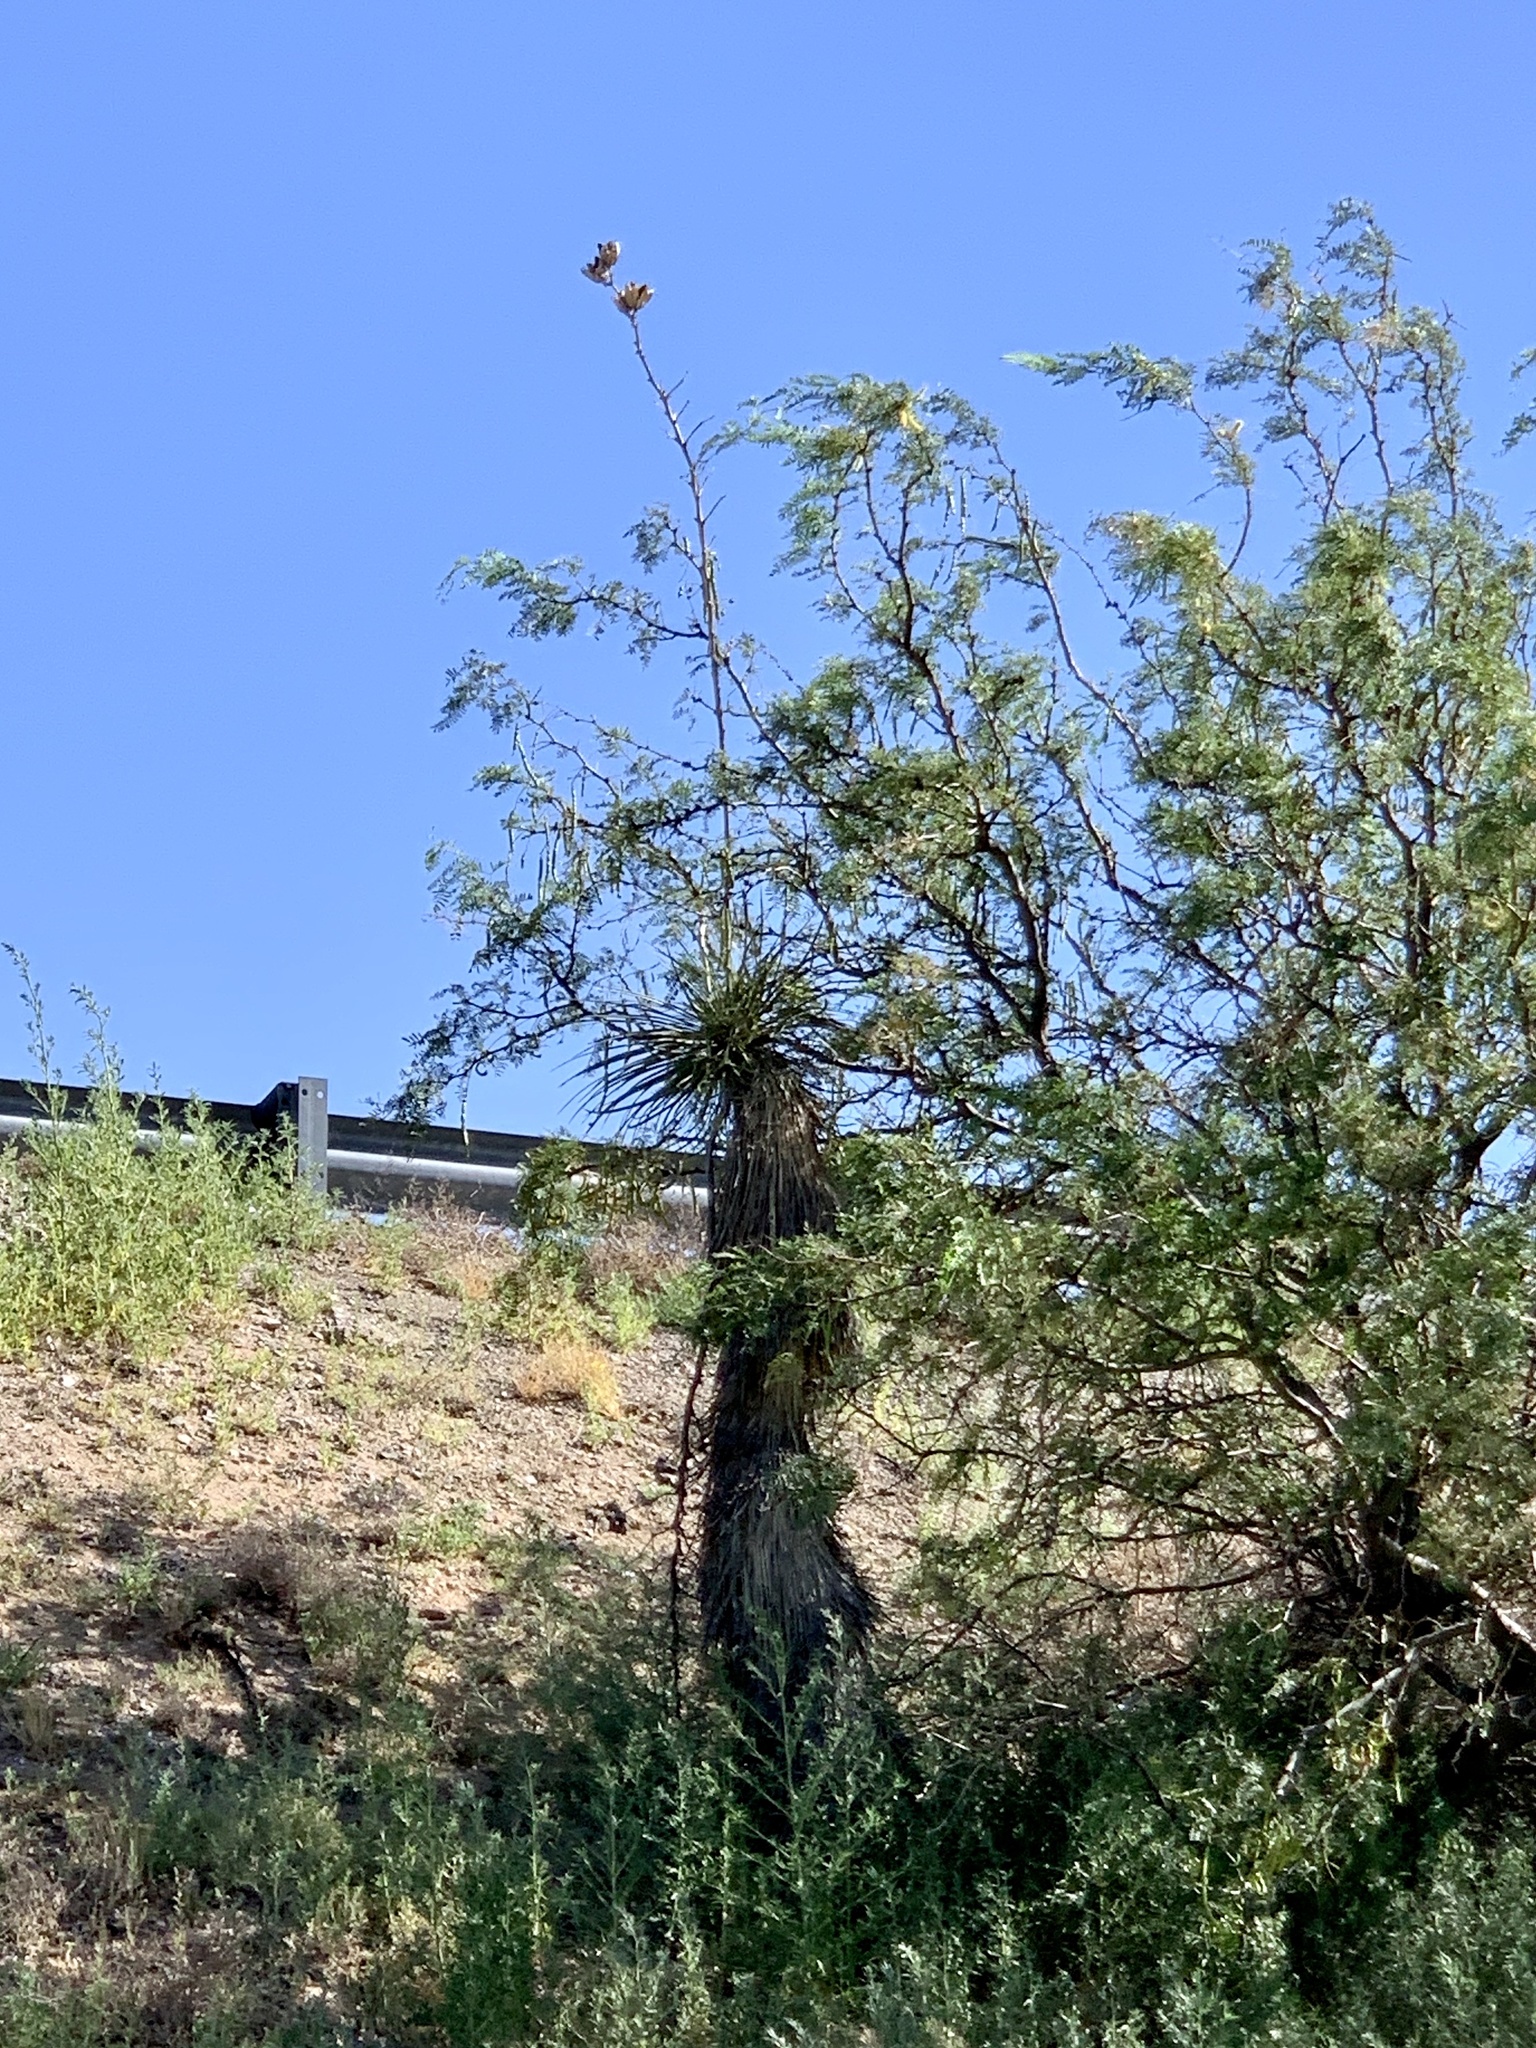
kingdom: Plantae
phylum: Tracheophyta
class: Liliopsida
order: Asparagales
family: Asparagaceae
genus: Yucca
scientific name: Yucca elata
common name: Palmella
